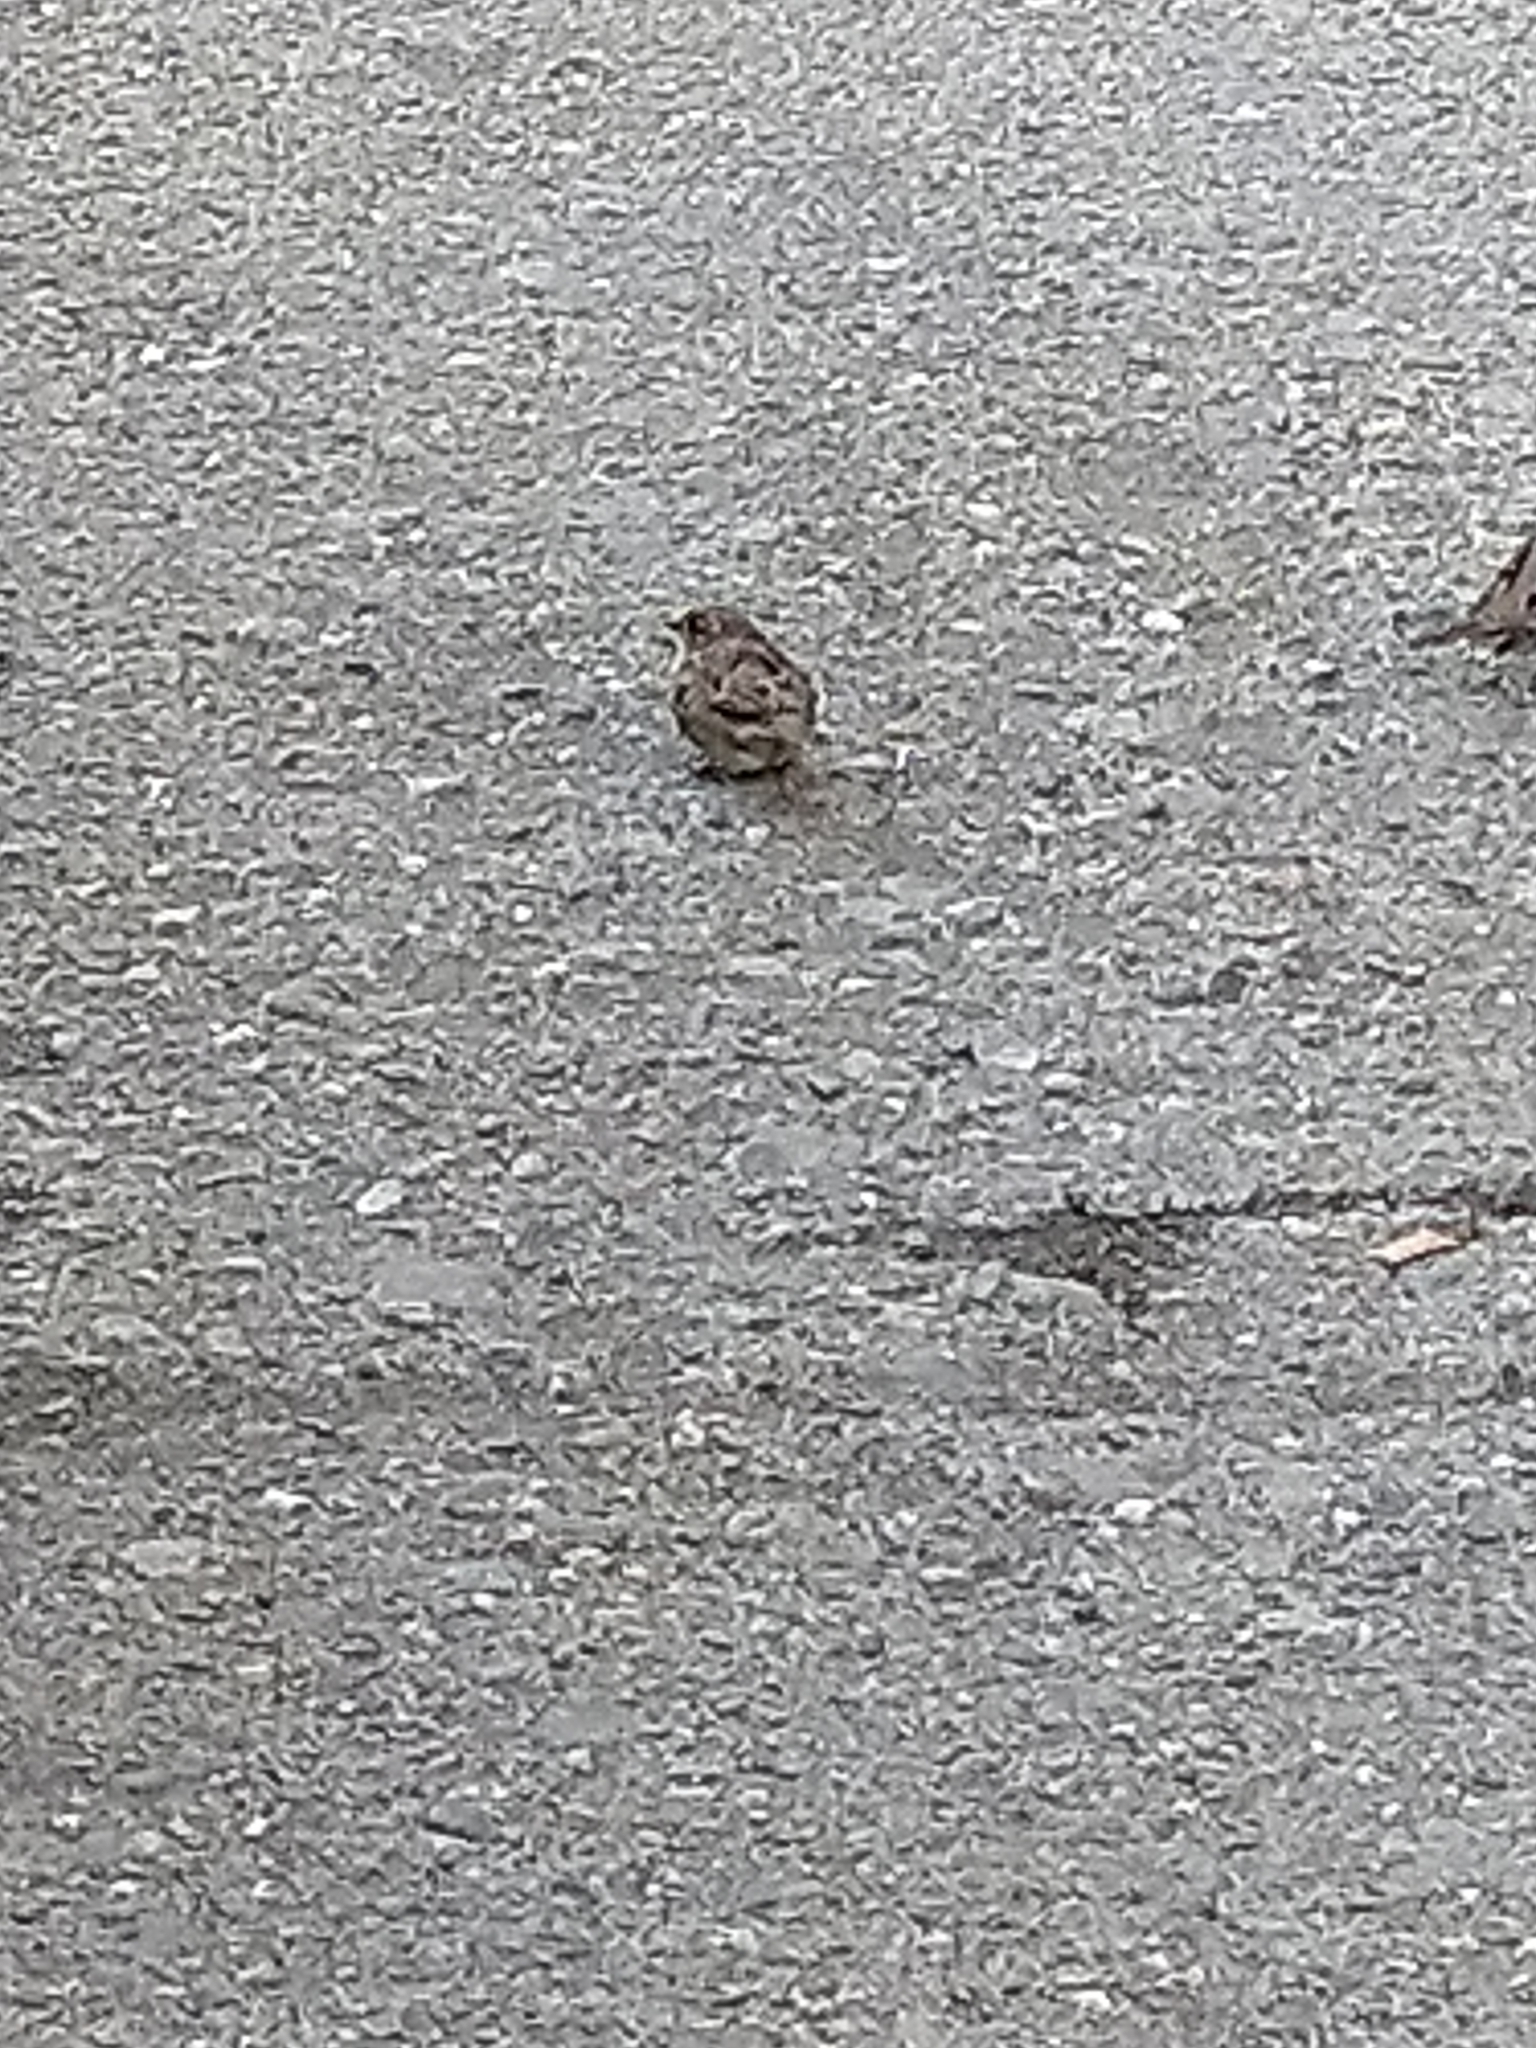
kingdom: Animalia
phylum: Chordata
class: Aves
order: Passeriformes
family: Passeridae
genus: Passer
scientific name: Passer domesticus
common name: House sparrow
